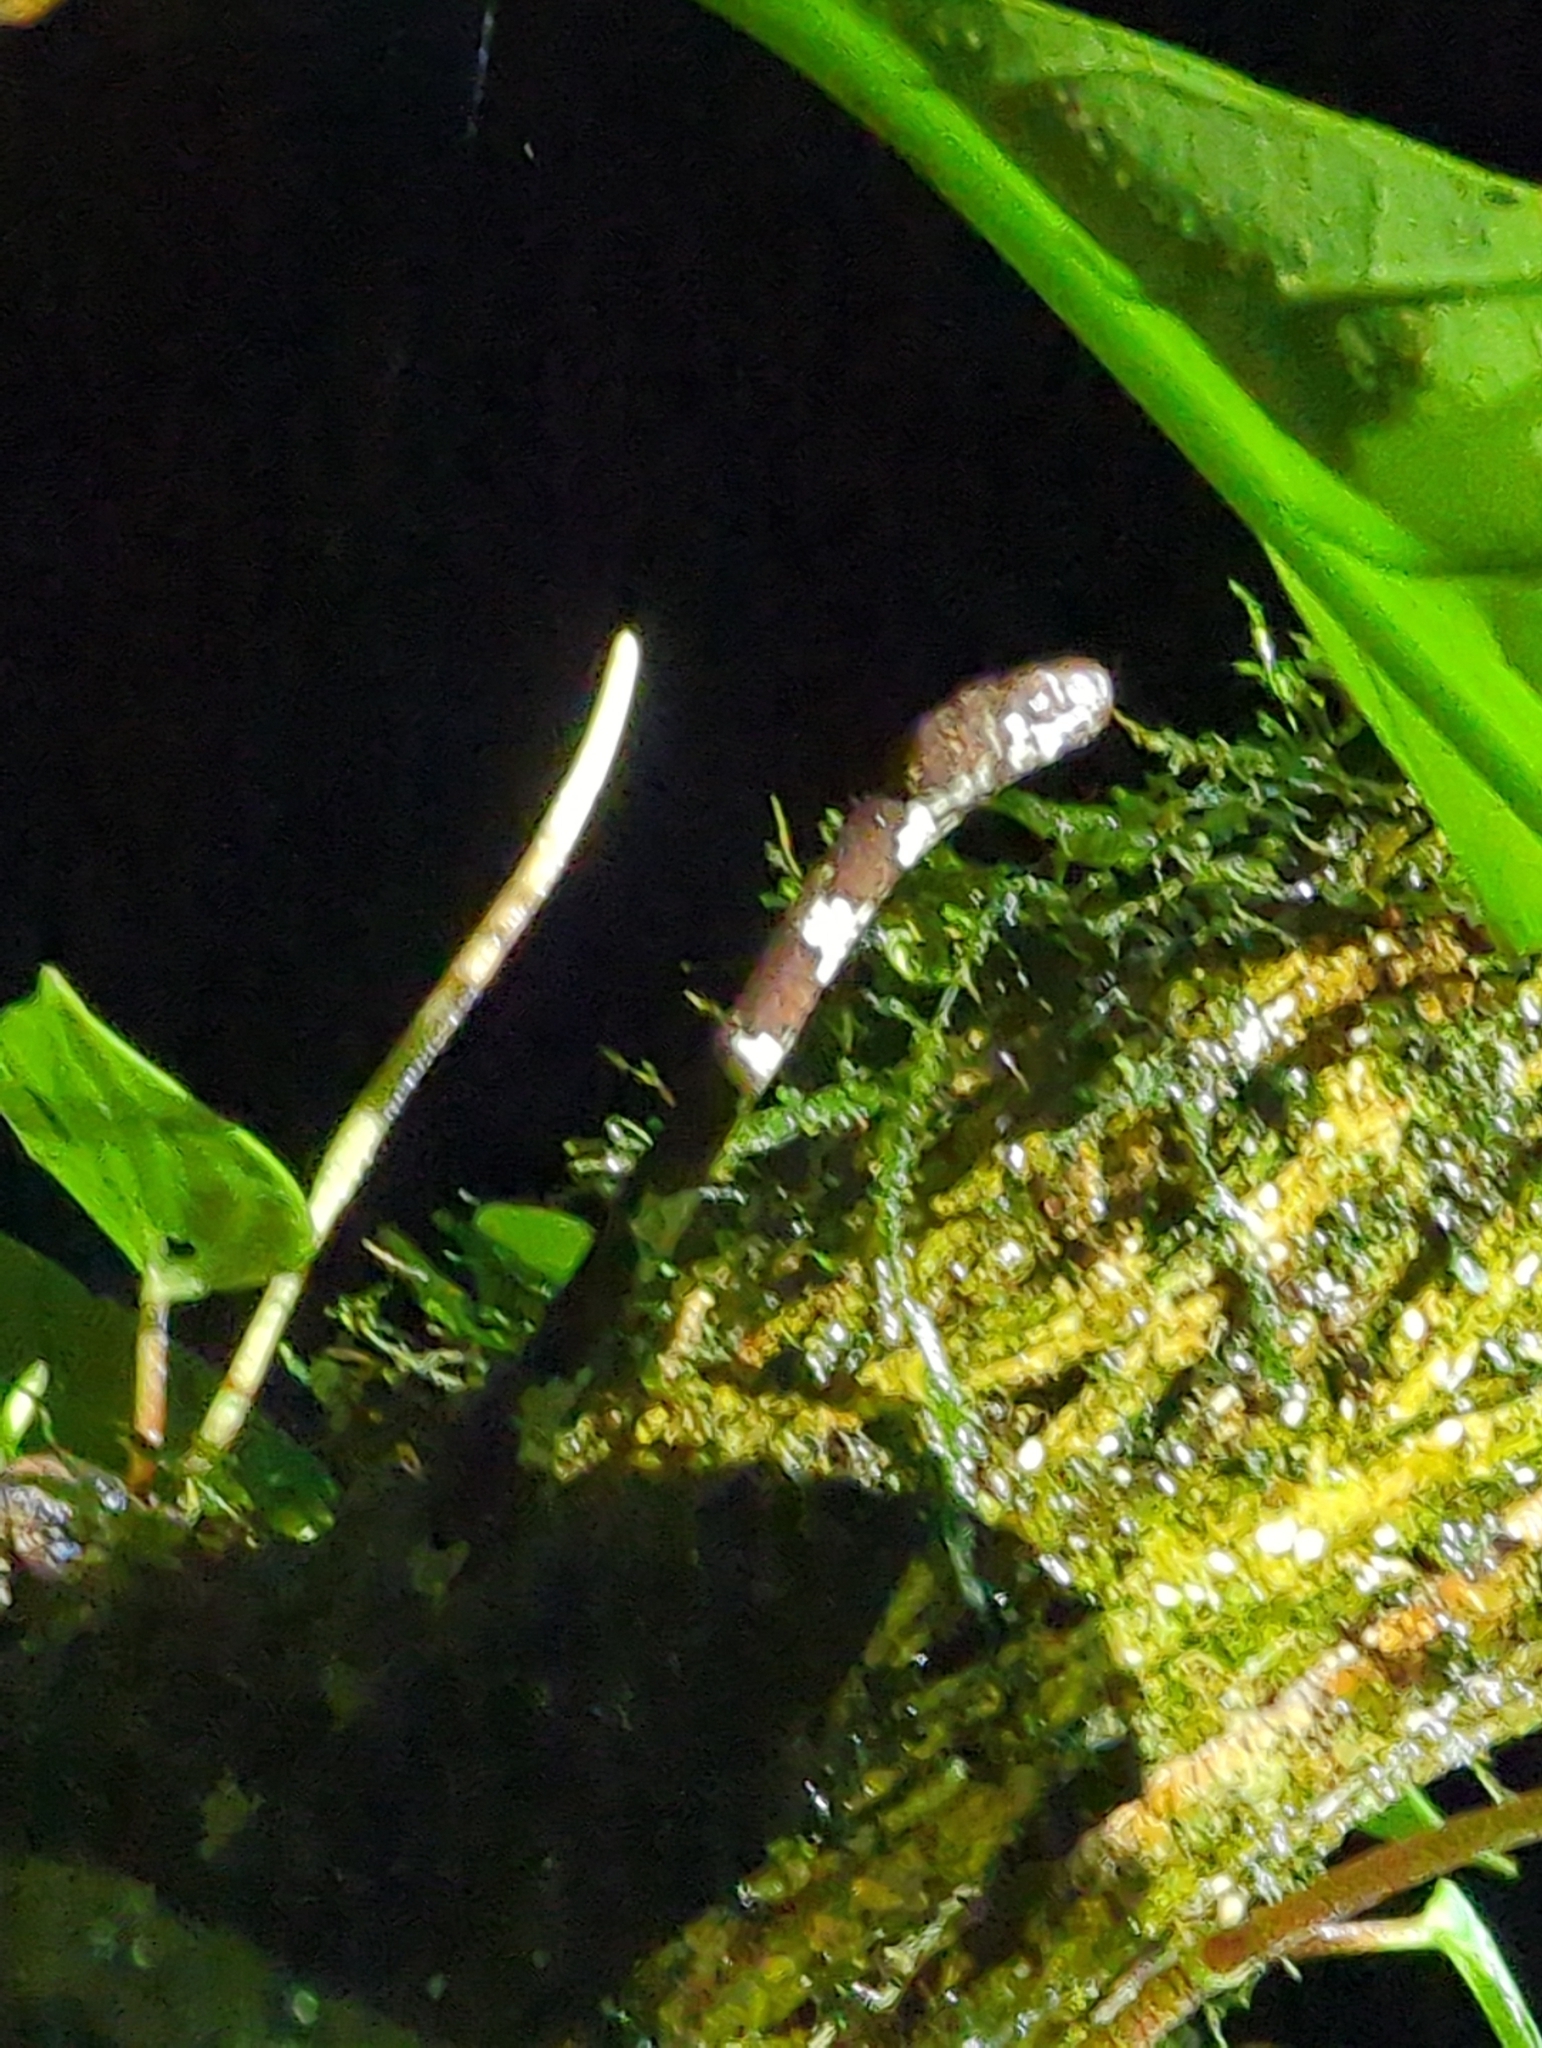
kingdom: Animalia
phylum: Chordata
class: Squamata
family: Colubridae
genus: Imantodes
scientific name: Imantodes cenchoa
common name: Blunthead tree snake
